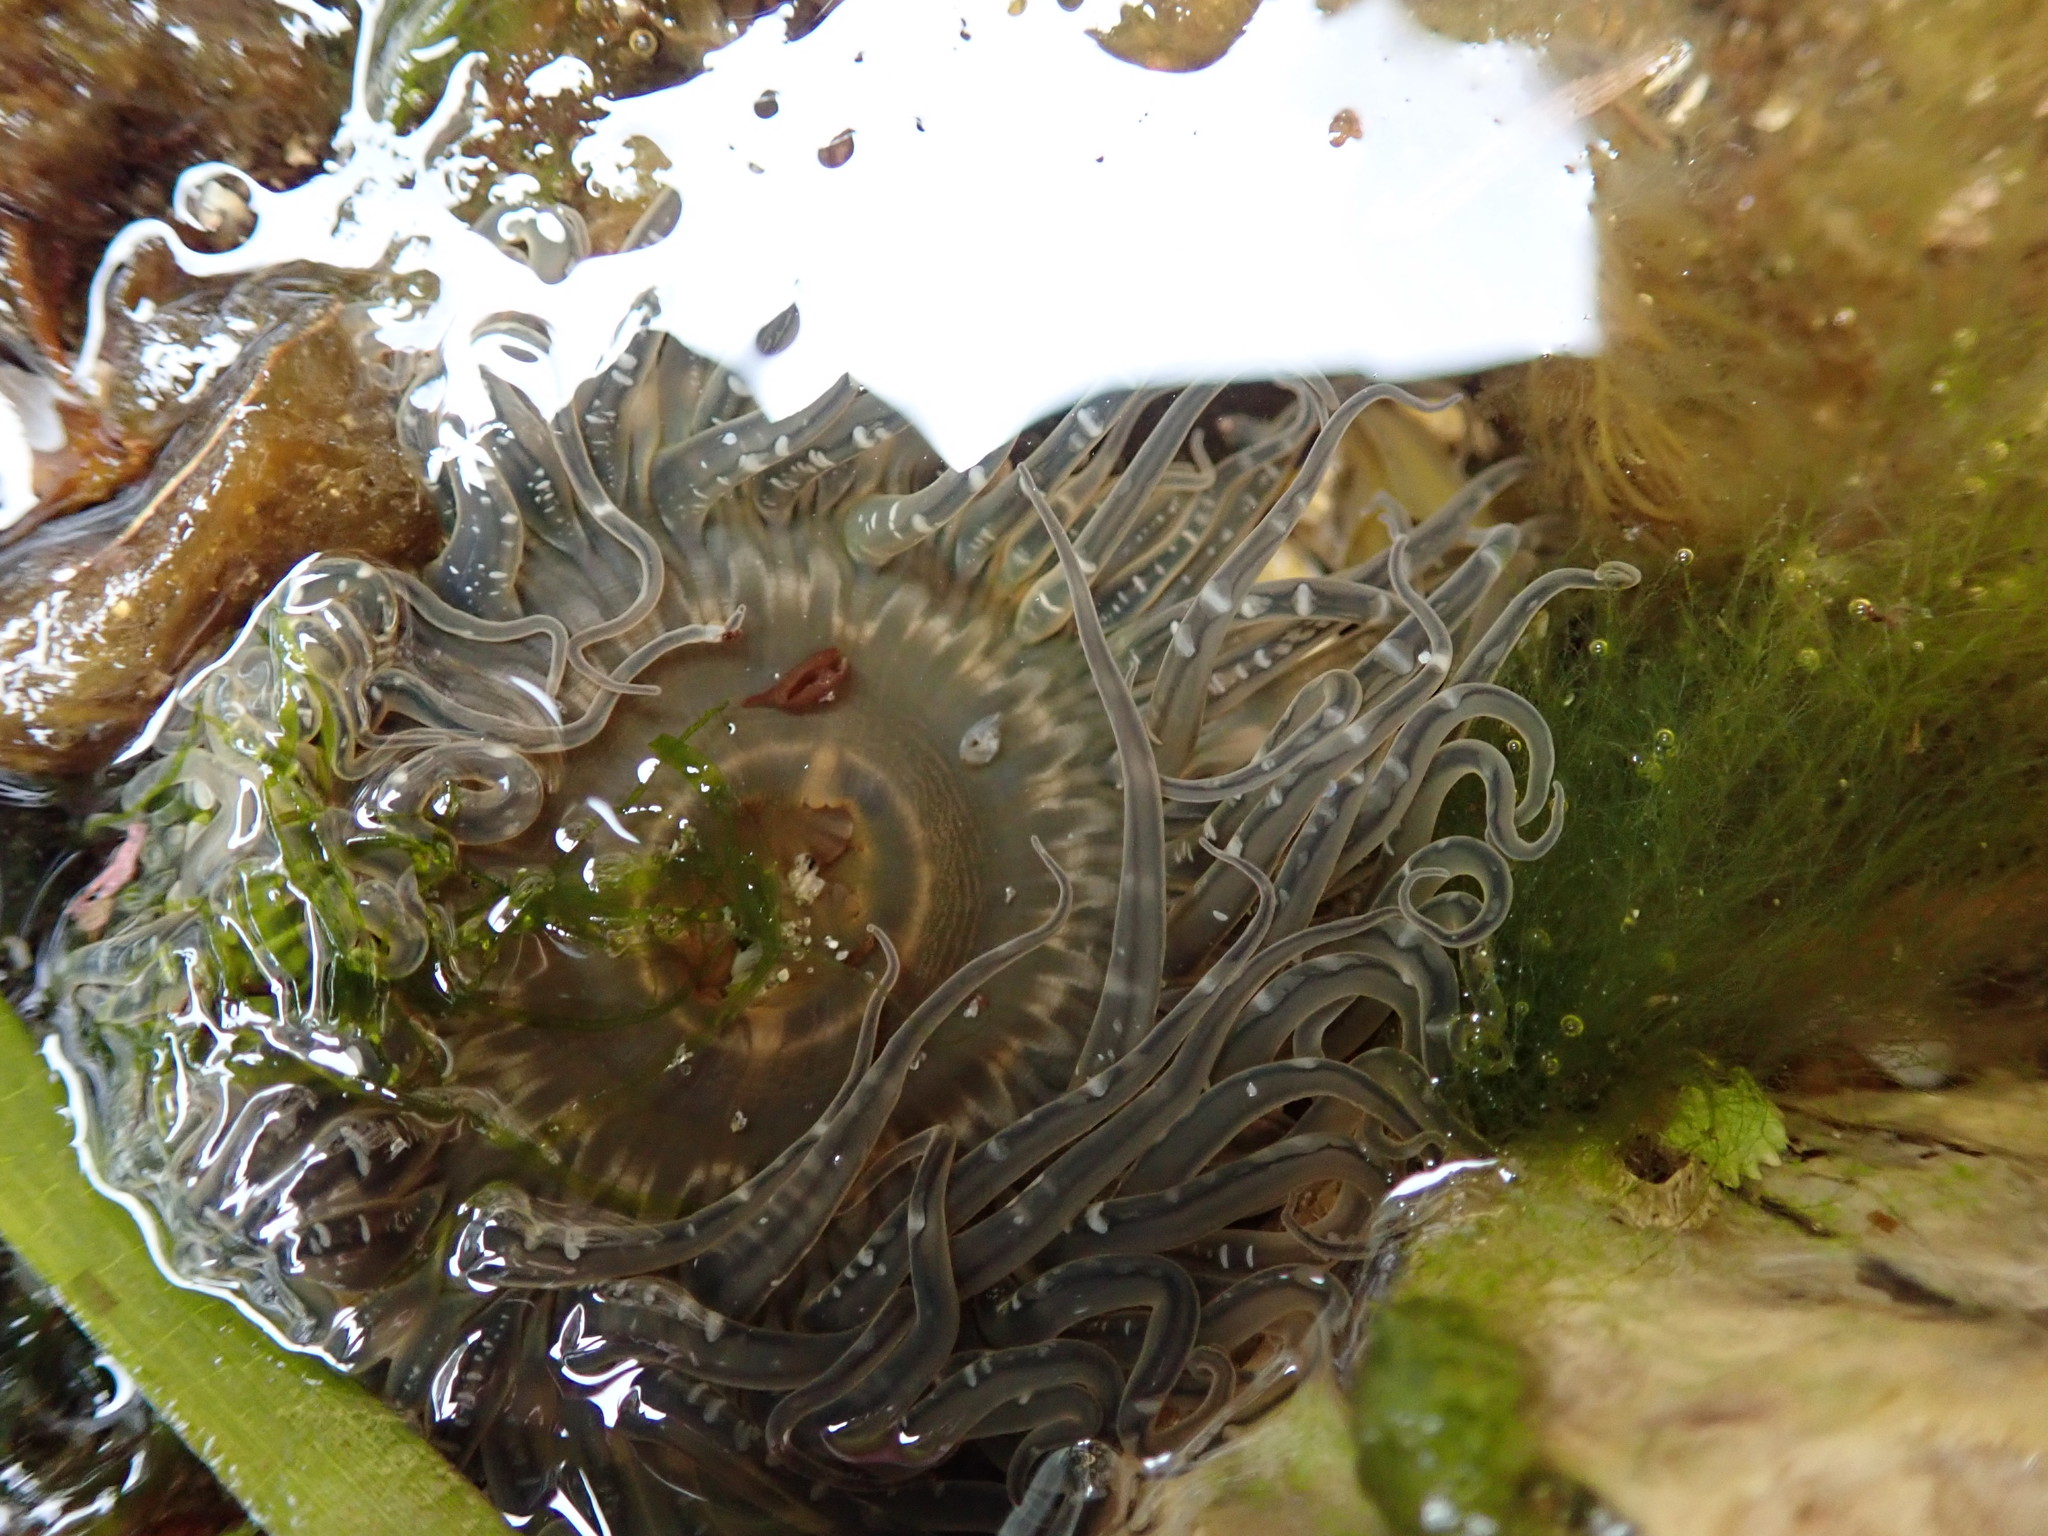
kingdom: Animalia
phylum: Cnidaria
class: Anthozoa
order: Actiniaria
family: Actiniidae
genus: Anthopleura
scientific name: Anthopleura artemisia
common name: Buried sea anemone
